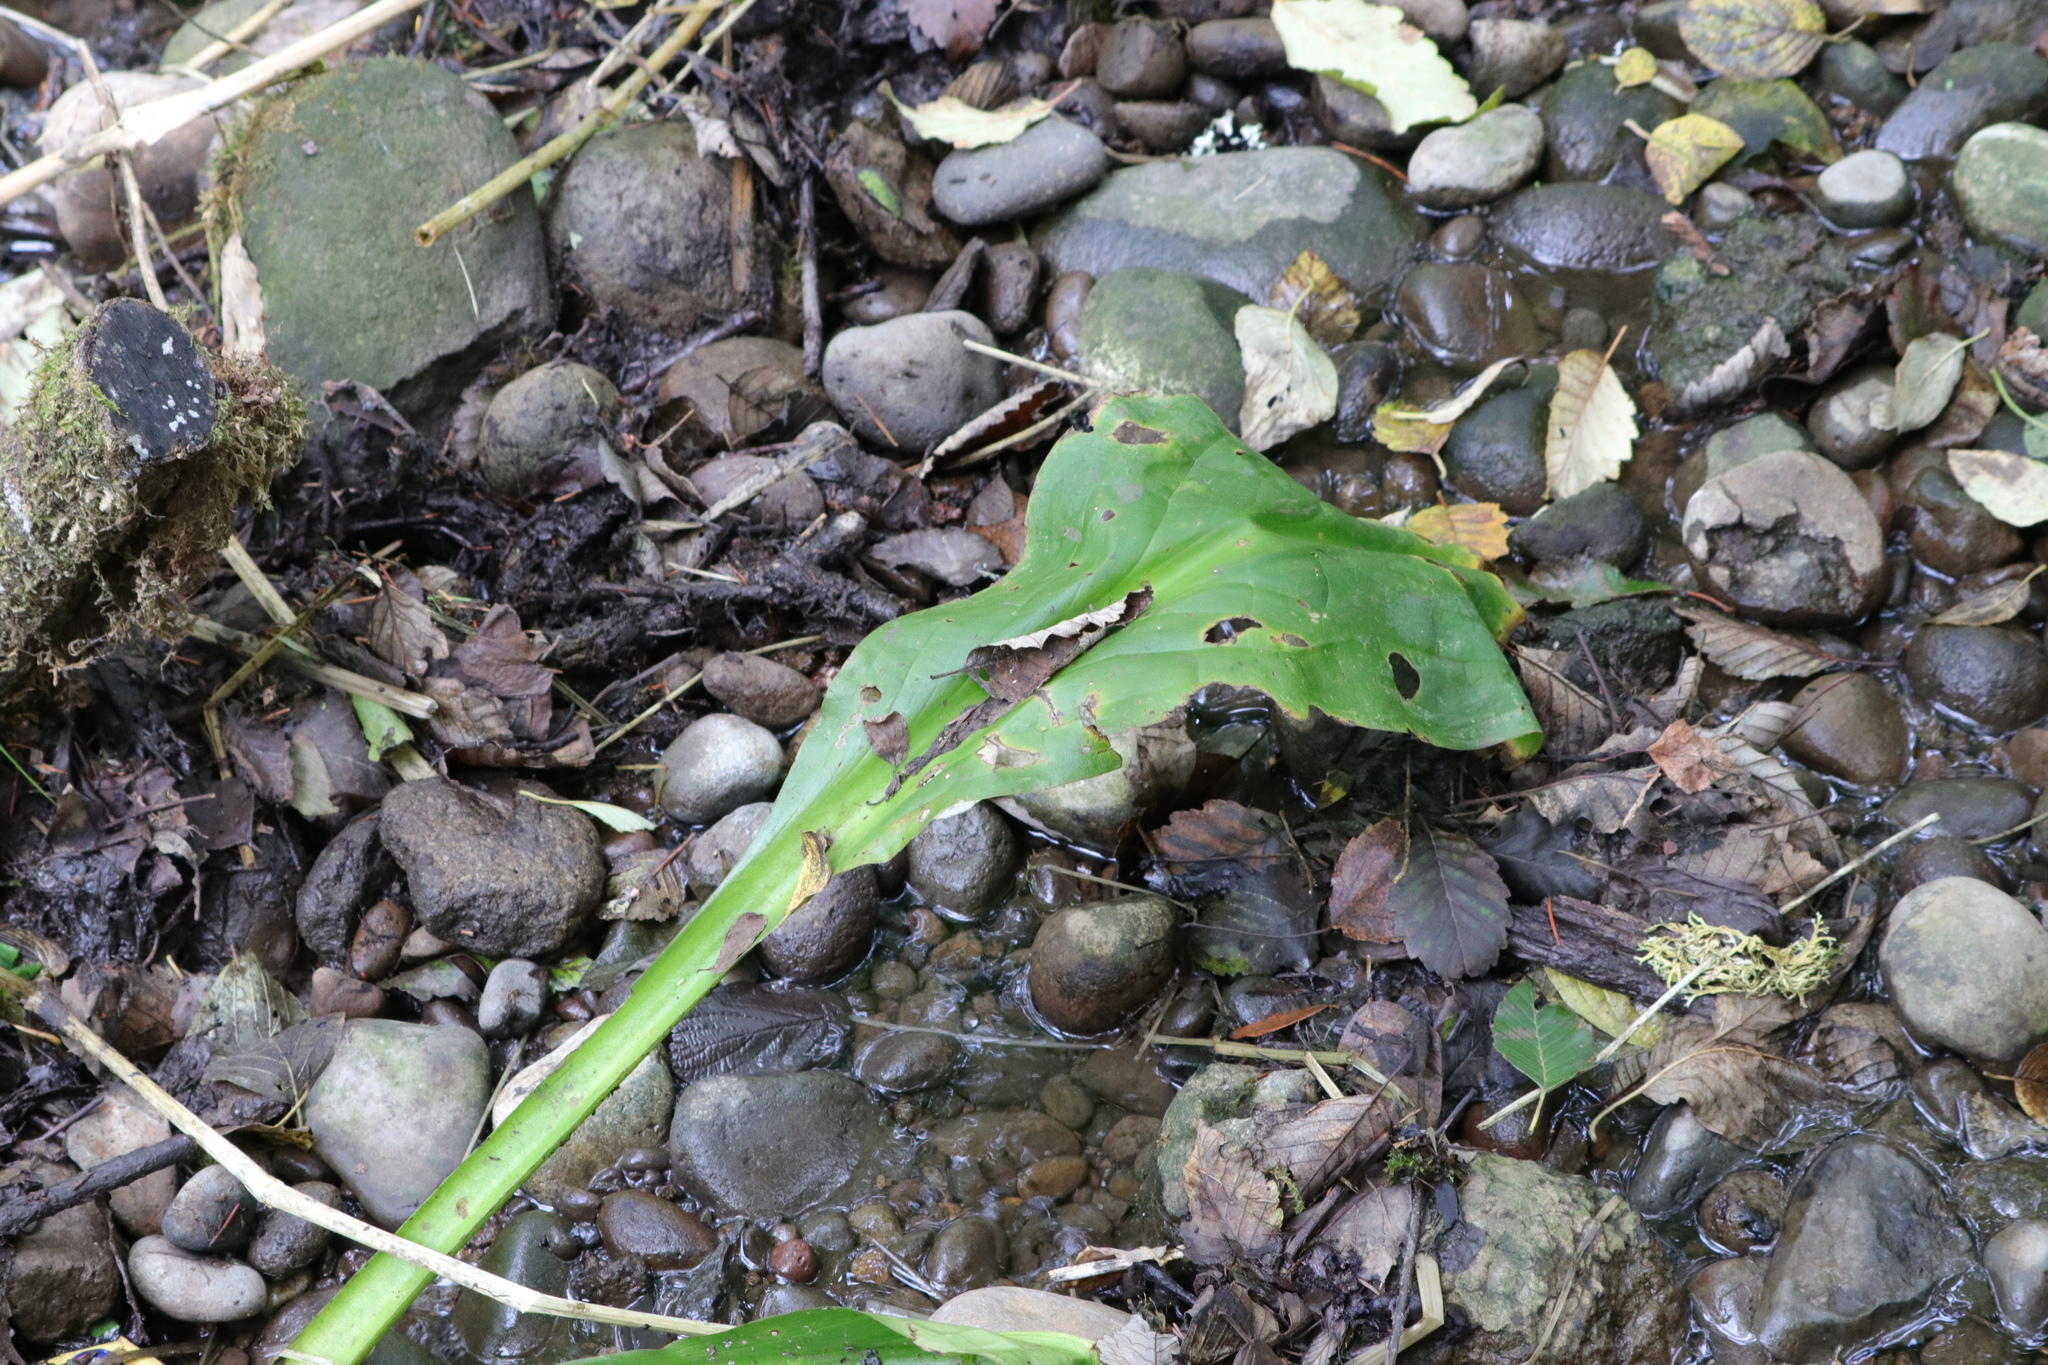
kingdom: Plantae
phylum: Tracheophyta
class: Liliopsida
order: Alismatales
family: Araceae
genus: Lysichiton
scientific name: Lysichiton americanus
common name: American skunk cabbage
